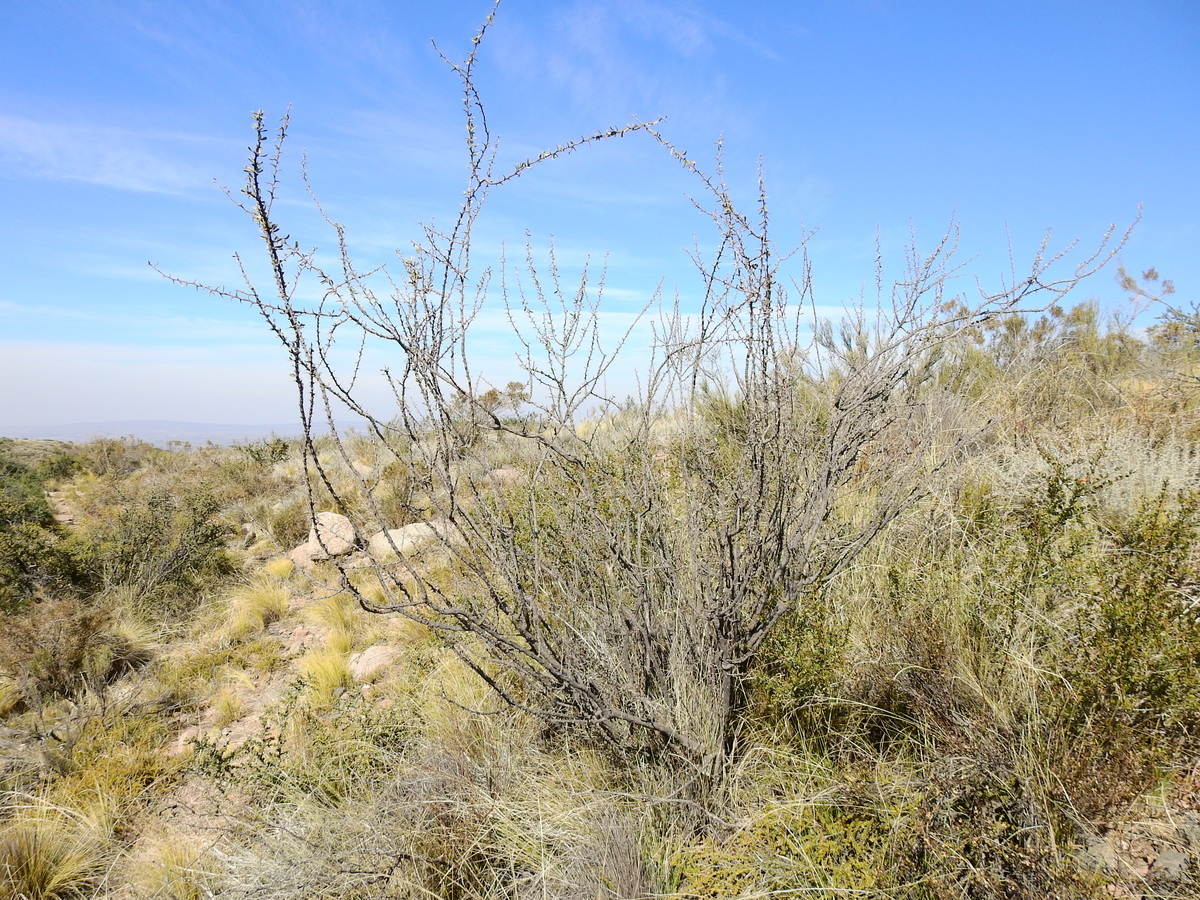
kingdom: Plantae
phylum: Tracheophyta
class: Magnoliopsida
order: Caryophyllales
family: Nyctaginaceae
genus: Bougainvillea
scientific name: Bougainvillea spinosa
